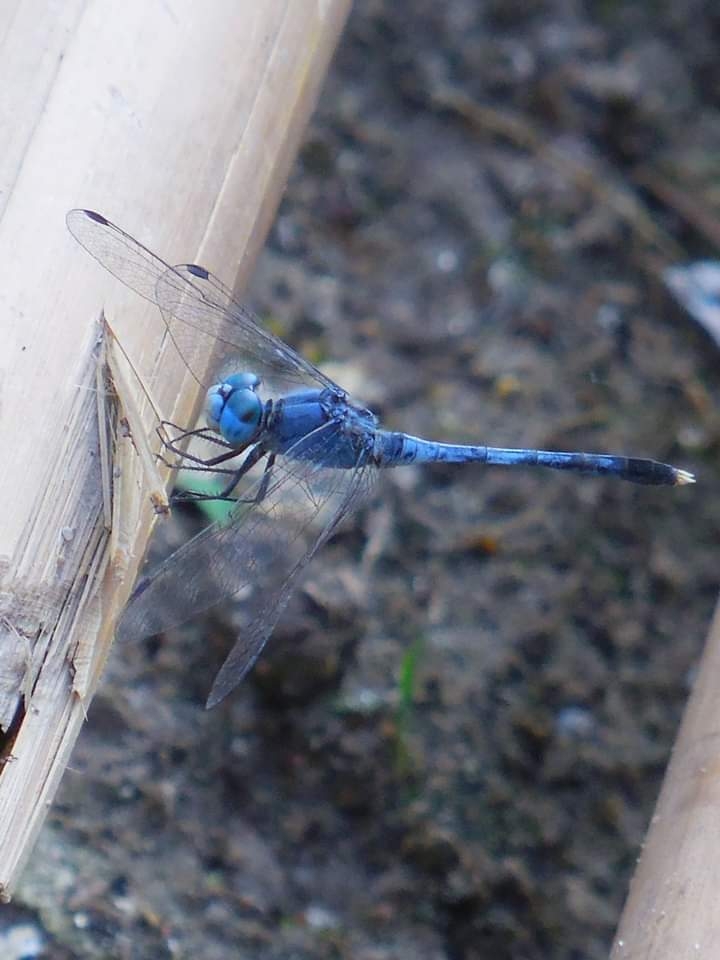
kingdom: Animalia
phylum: Arthropoda
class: Insecta
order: Odonata
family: Libellulidae
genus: Diplacodes
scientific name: Diplacodes trivialis
